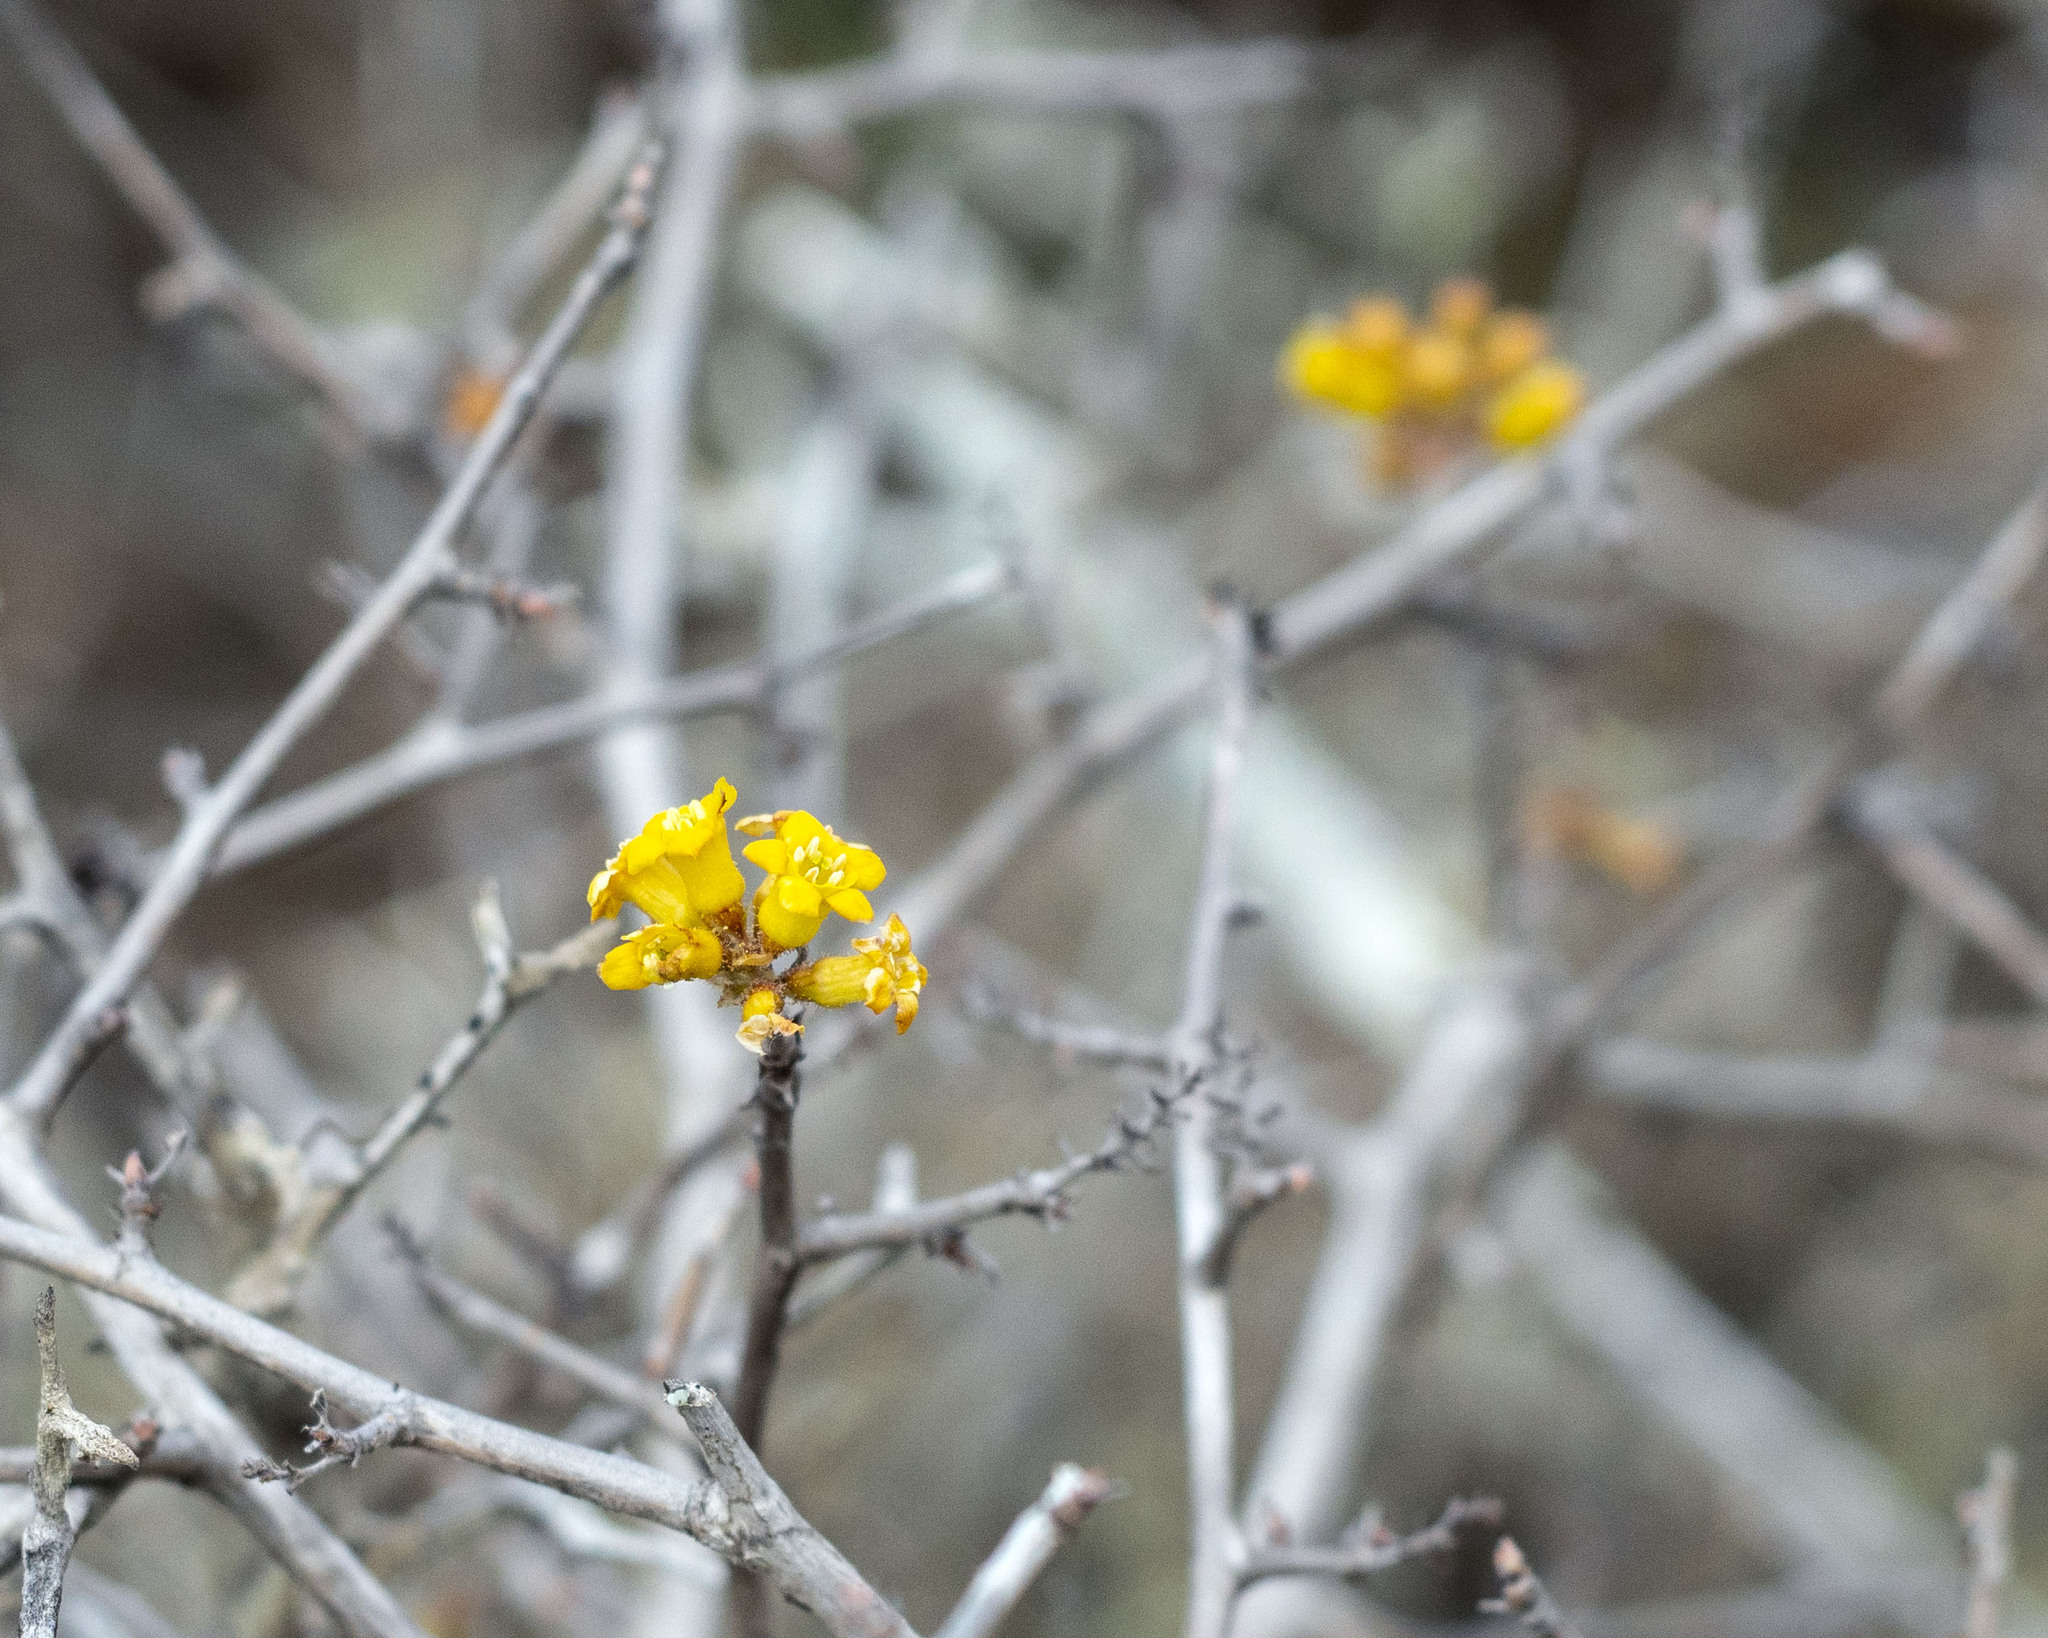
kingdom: Plantae
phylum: Tracheophyta
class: Magnoliopsida
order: Saxifragales
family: Grossulariaceae
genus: Ribes
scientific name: Ribes tortuosum
